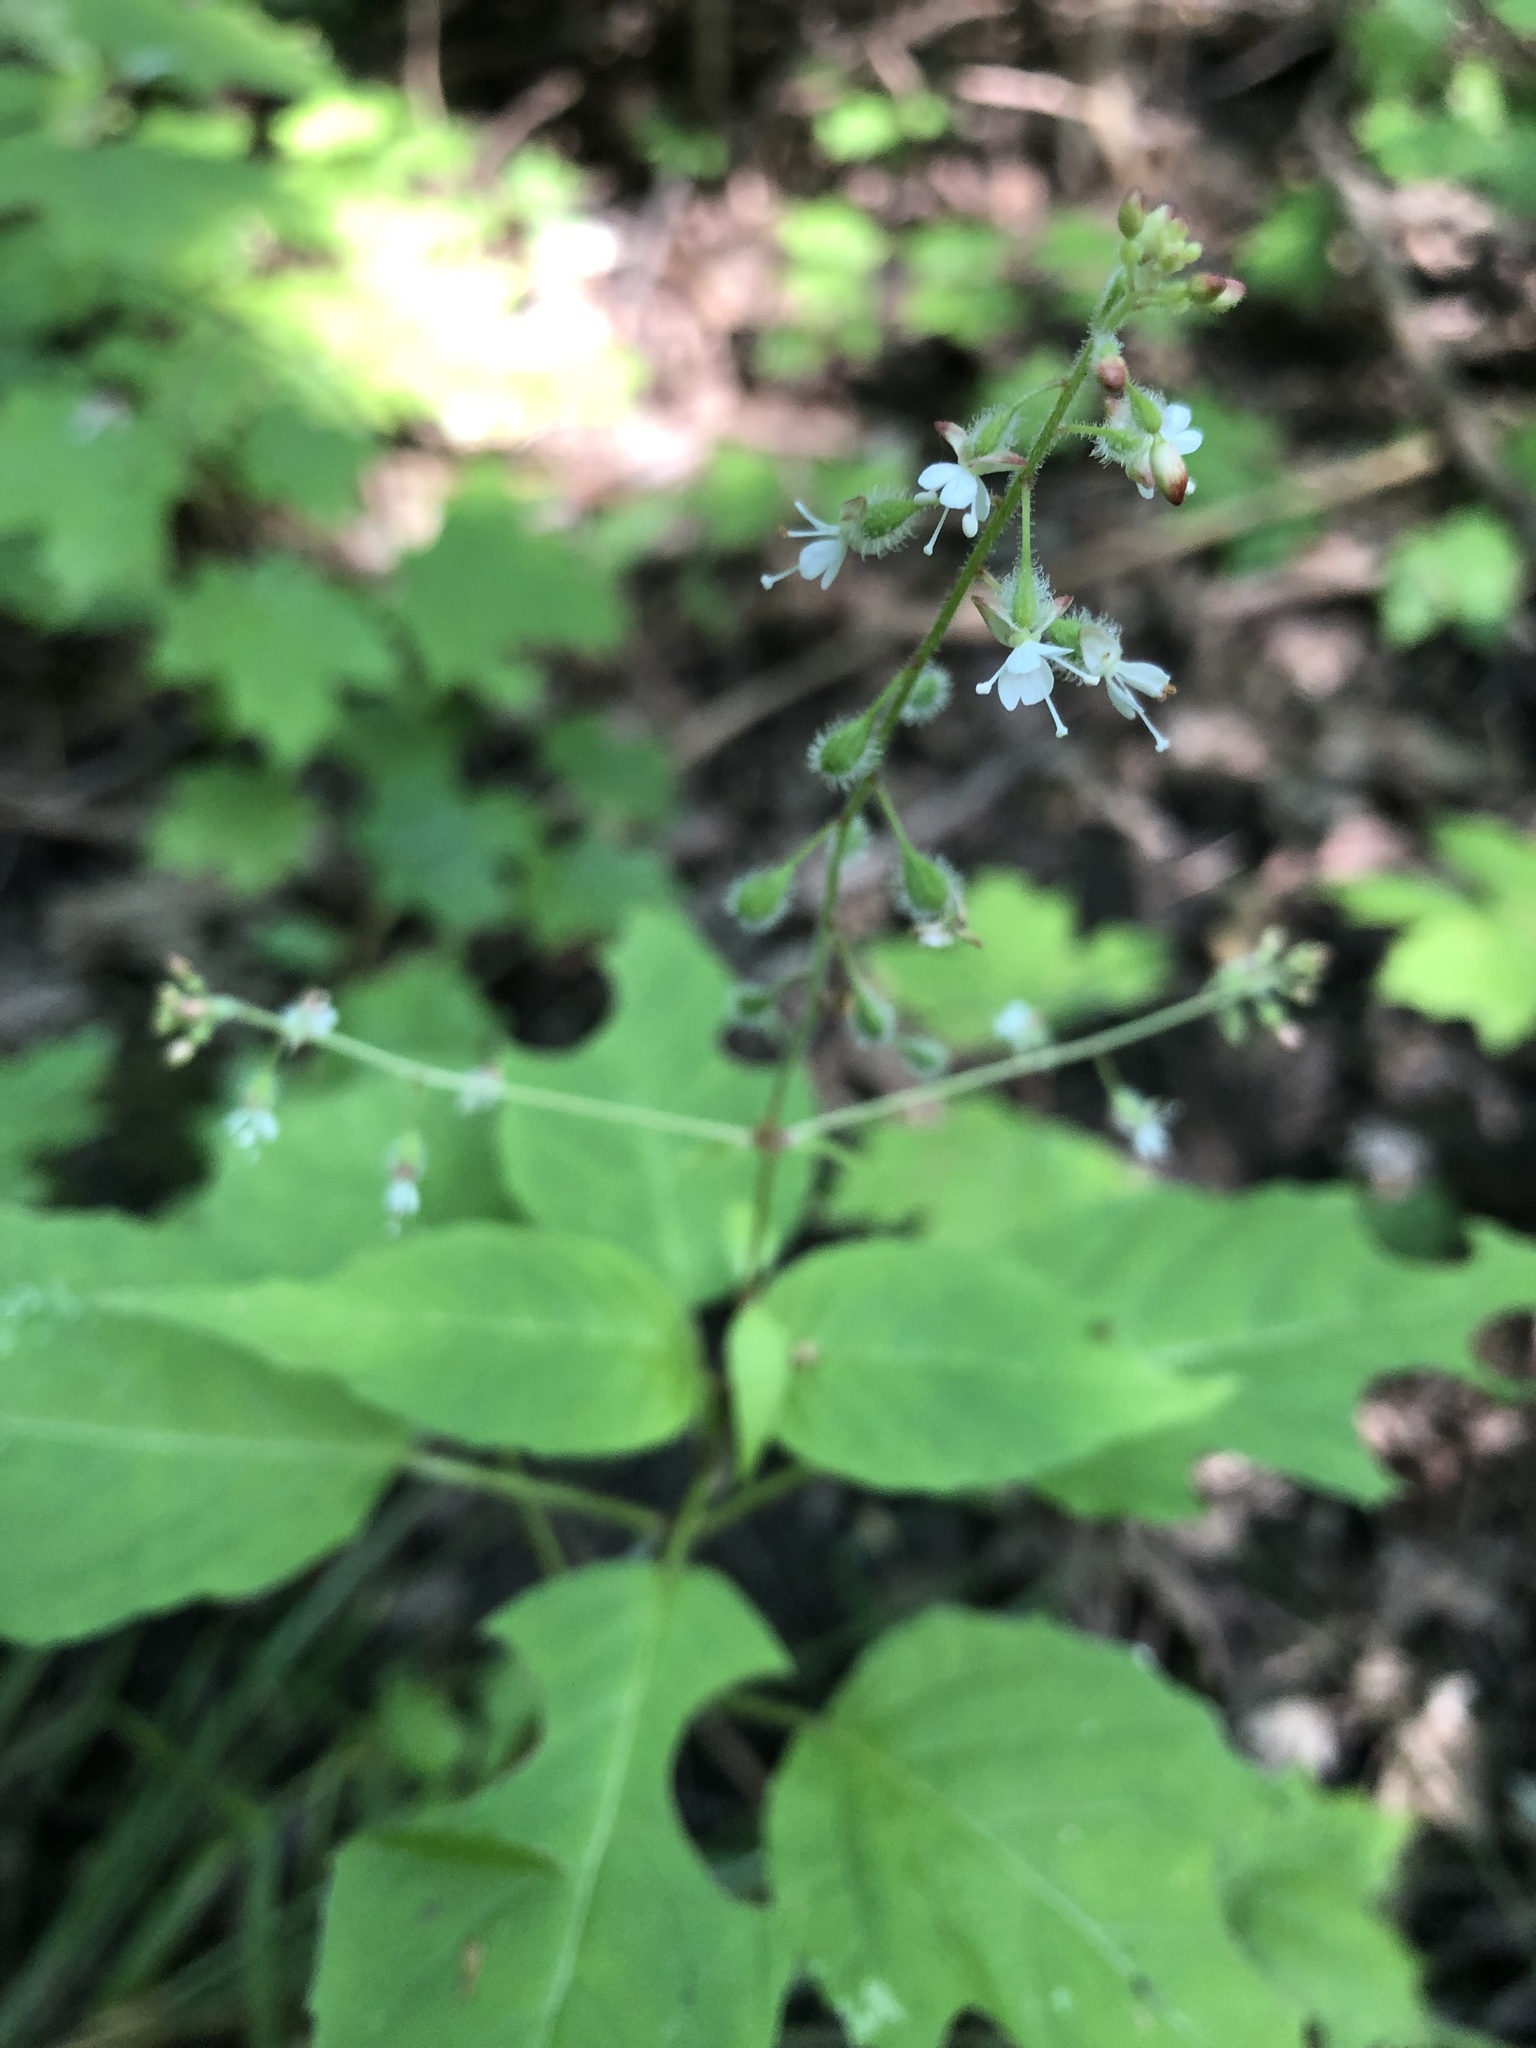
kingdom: Plantae
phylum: Tracheophyta
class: Magnoliopsida
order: Myrtales
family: Onagraceae
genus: Circaea
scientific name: Circaea canadensis
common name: Broad-leaved enchanter's nightshade
